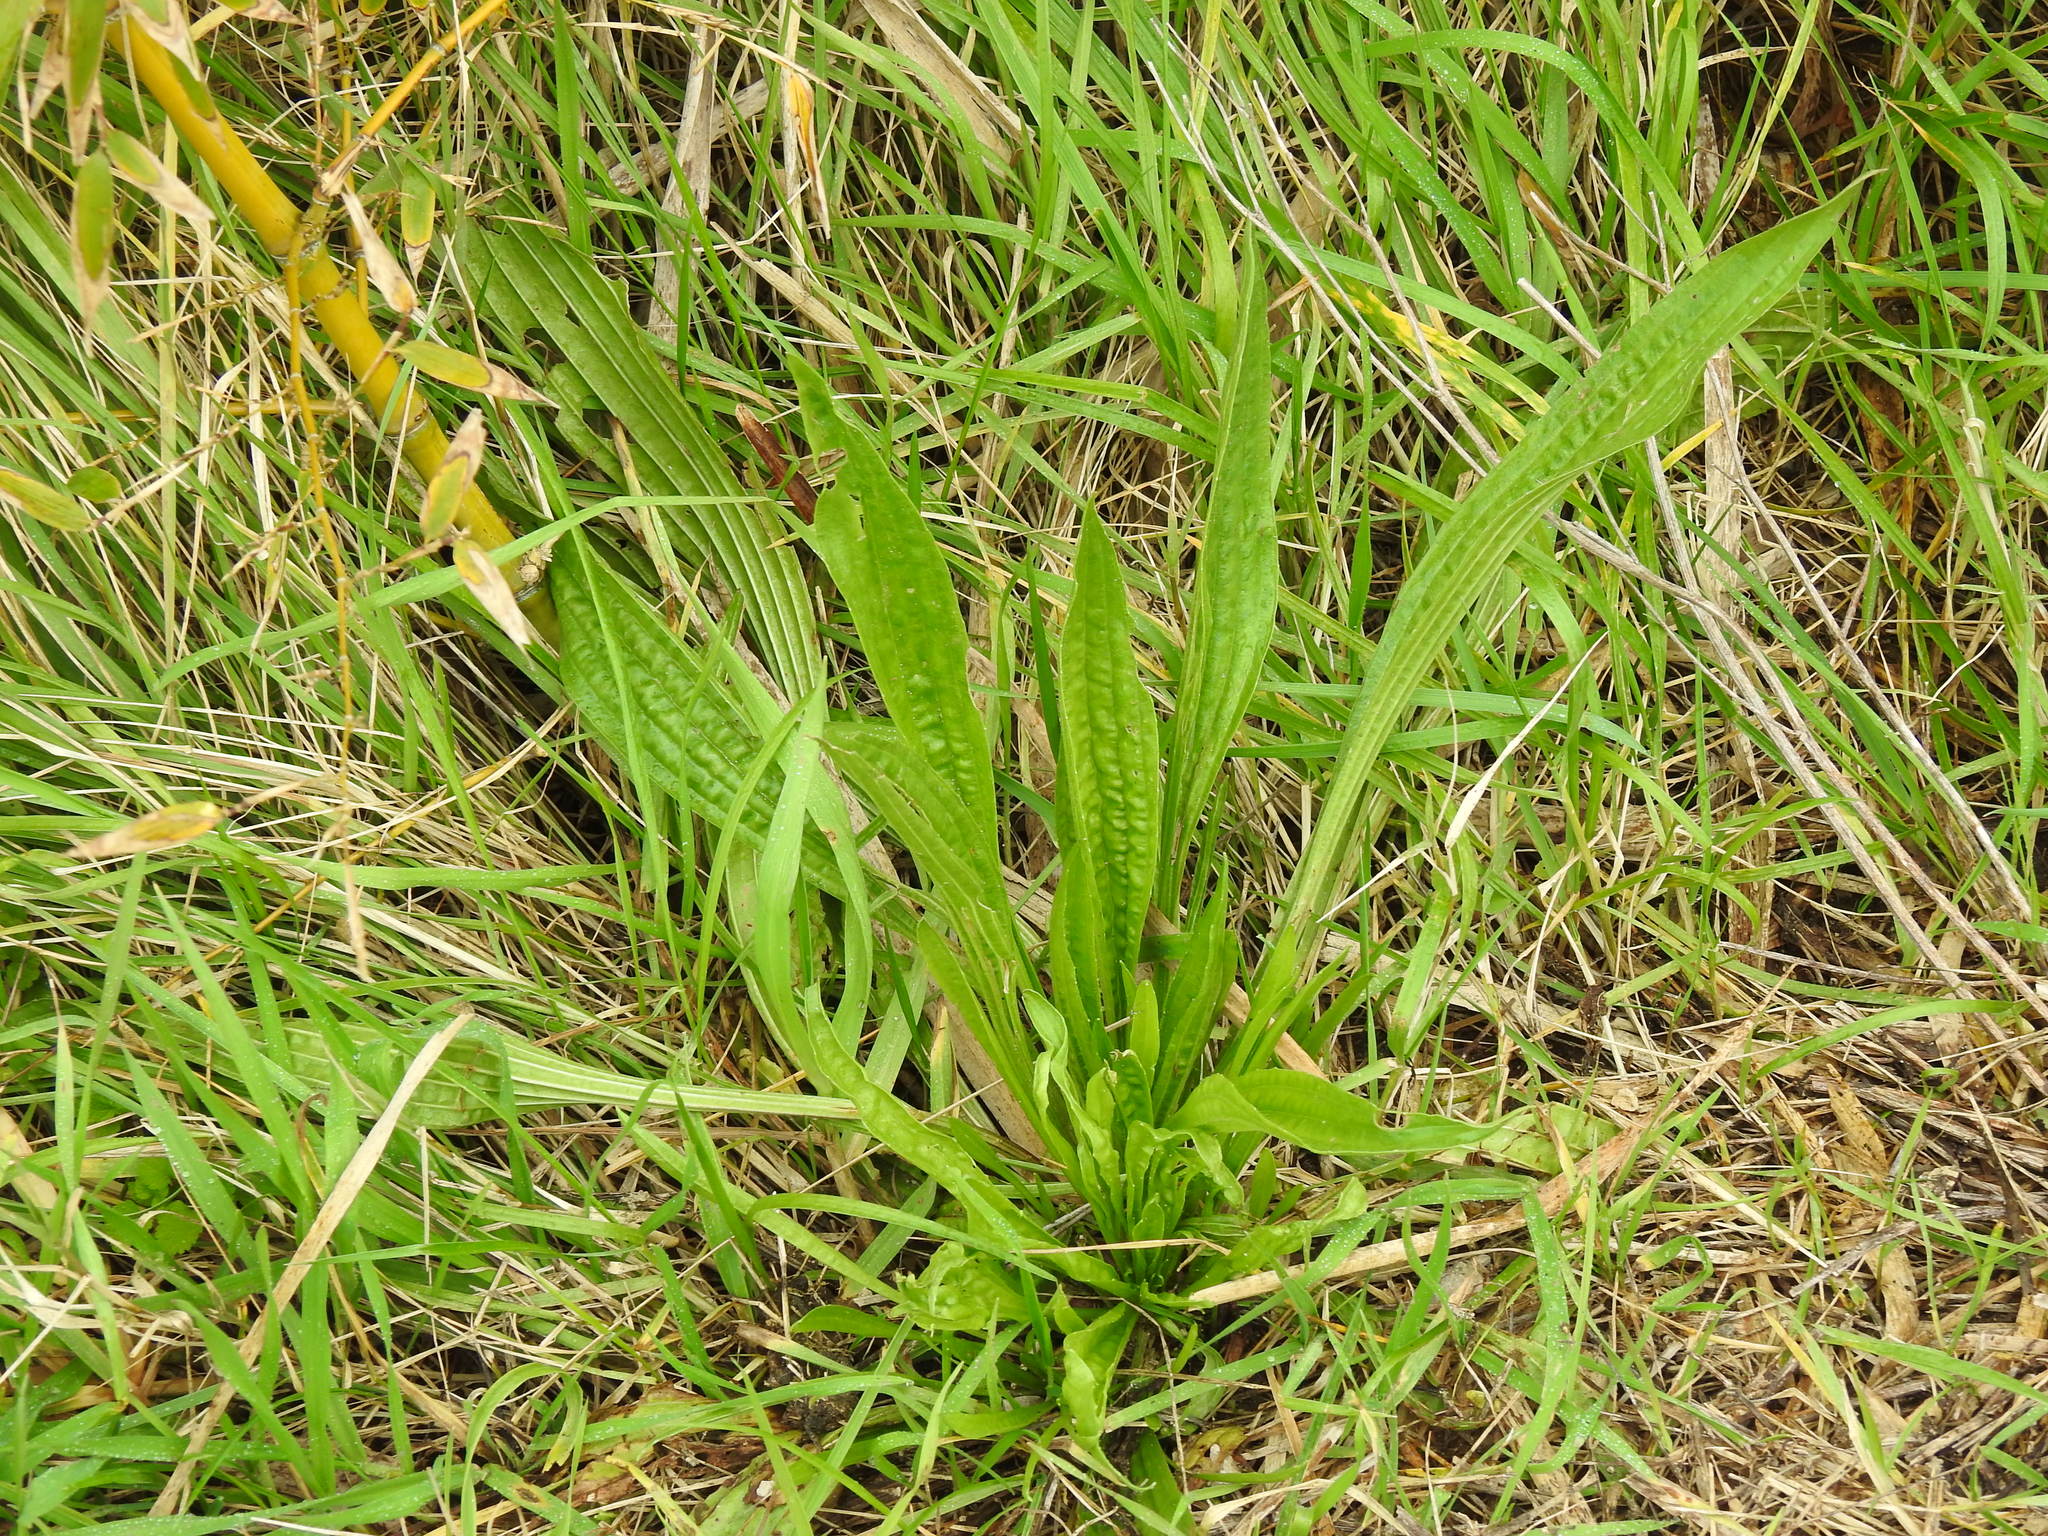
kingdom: Plantae
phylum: Tracheophyta
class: Magnoliopsida
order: Lamiales
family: Plantaginaceae
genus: Plantago
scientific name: Plantago lanceolata
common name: Ribwort plantain
